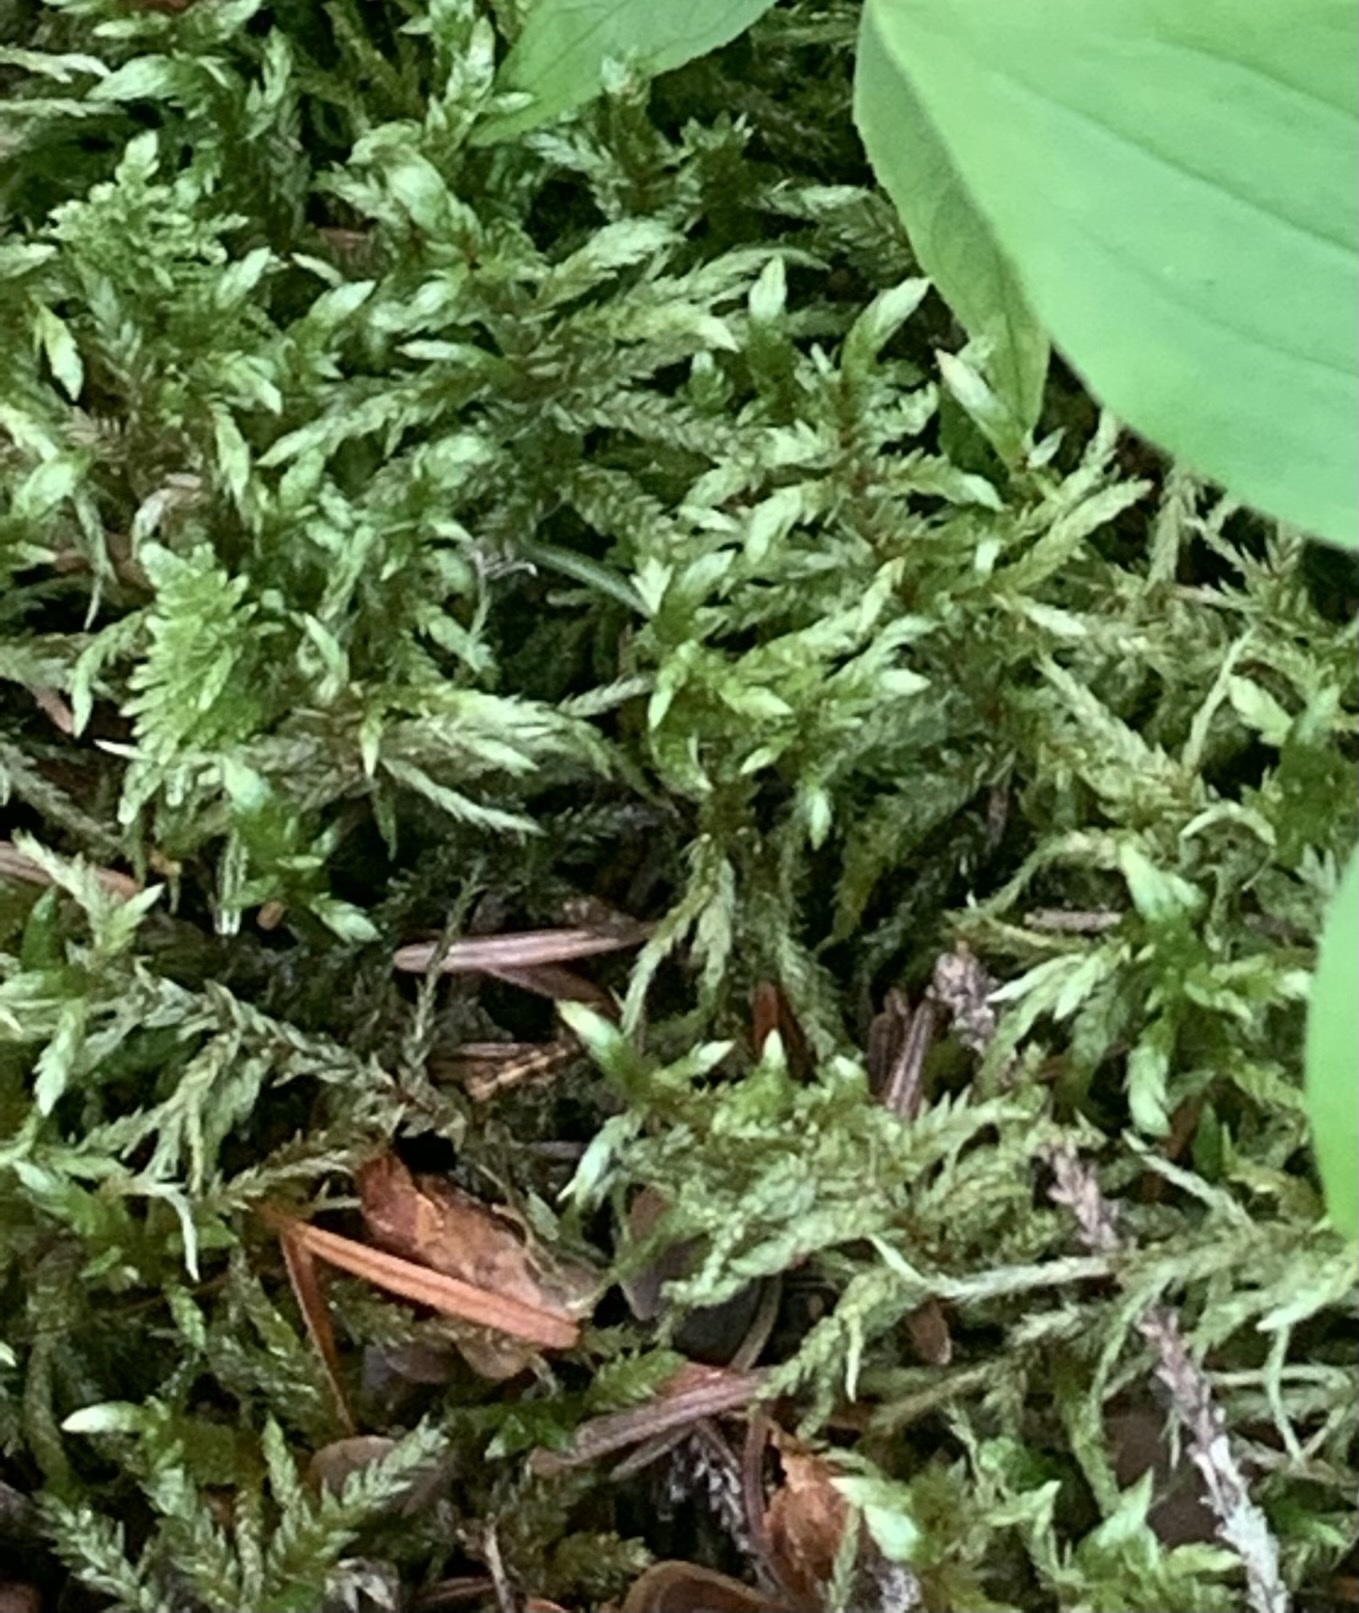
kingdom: Plantae
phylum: Bryophyta
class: Bryopsida
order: Hypnales
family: Hylocomiaceae
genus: Pleurozium
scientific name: Pleurozium schreberi
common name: Red-stemmed feather moss
